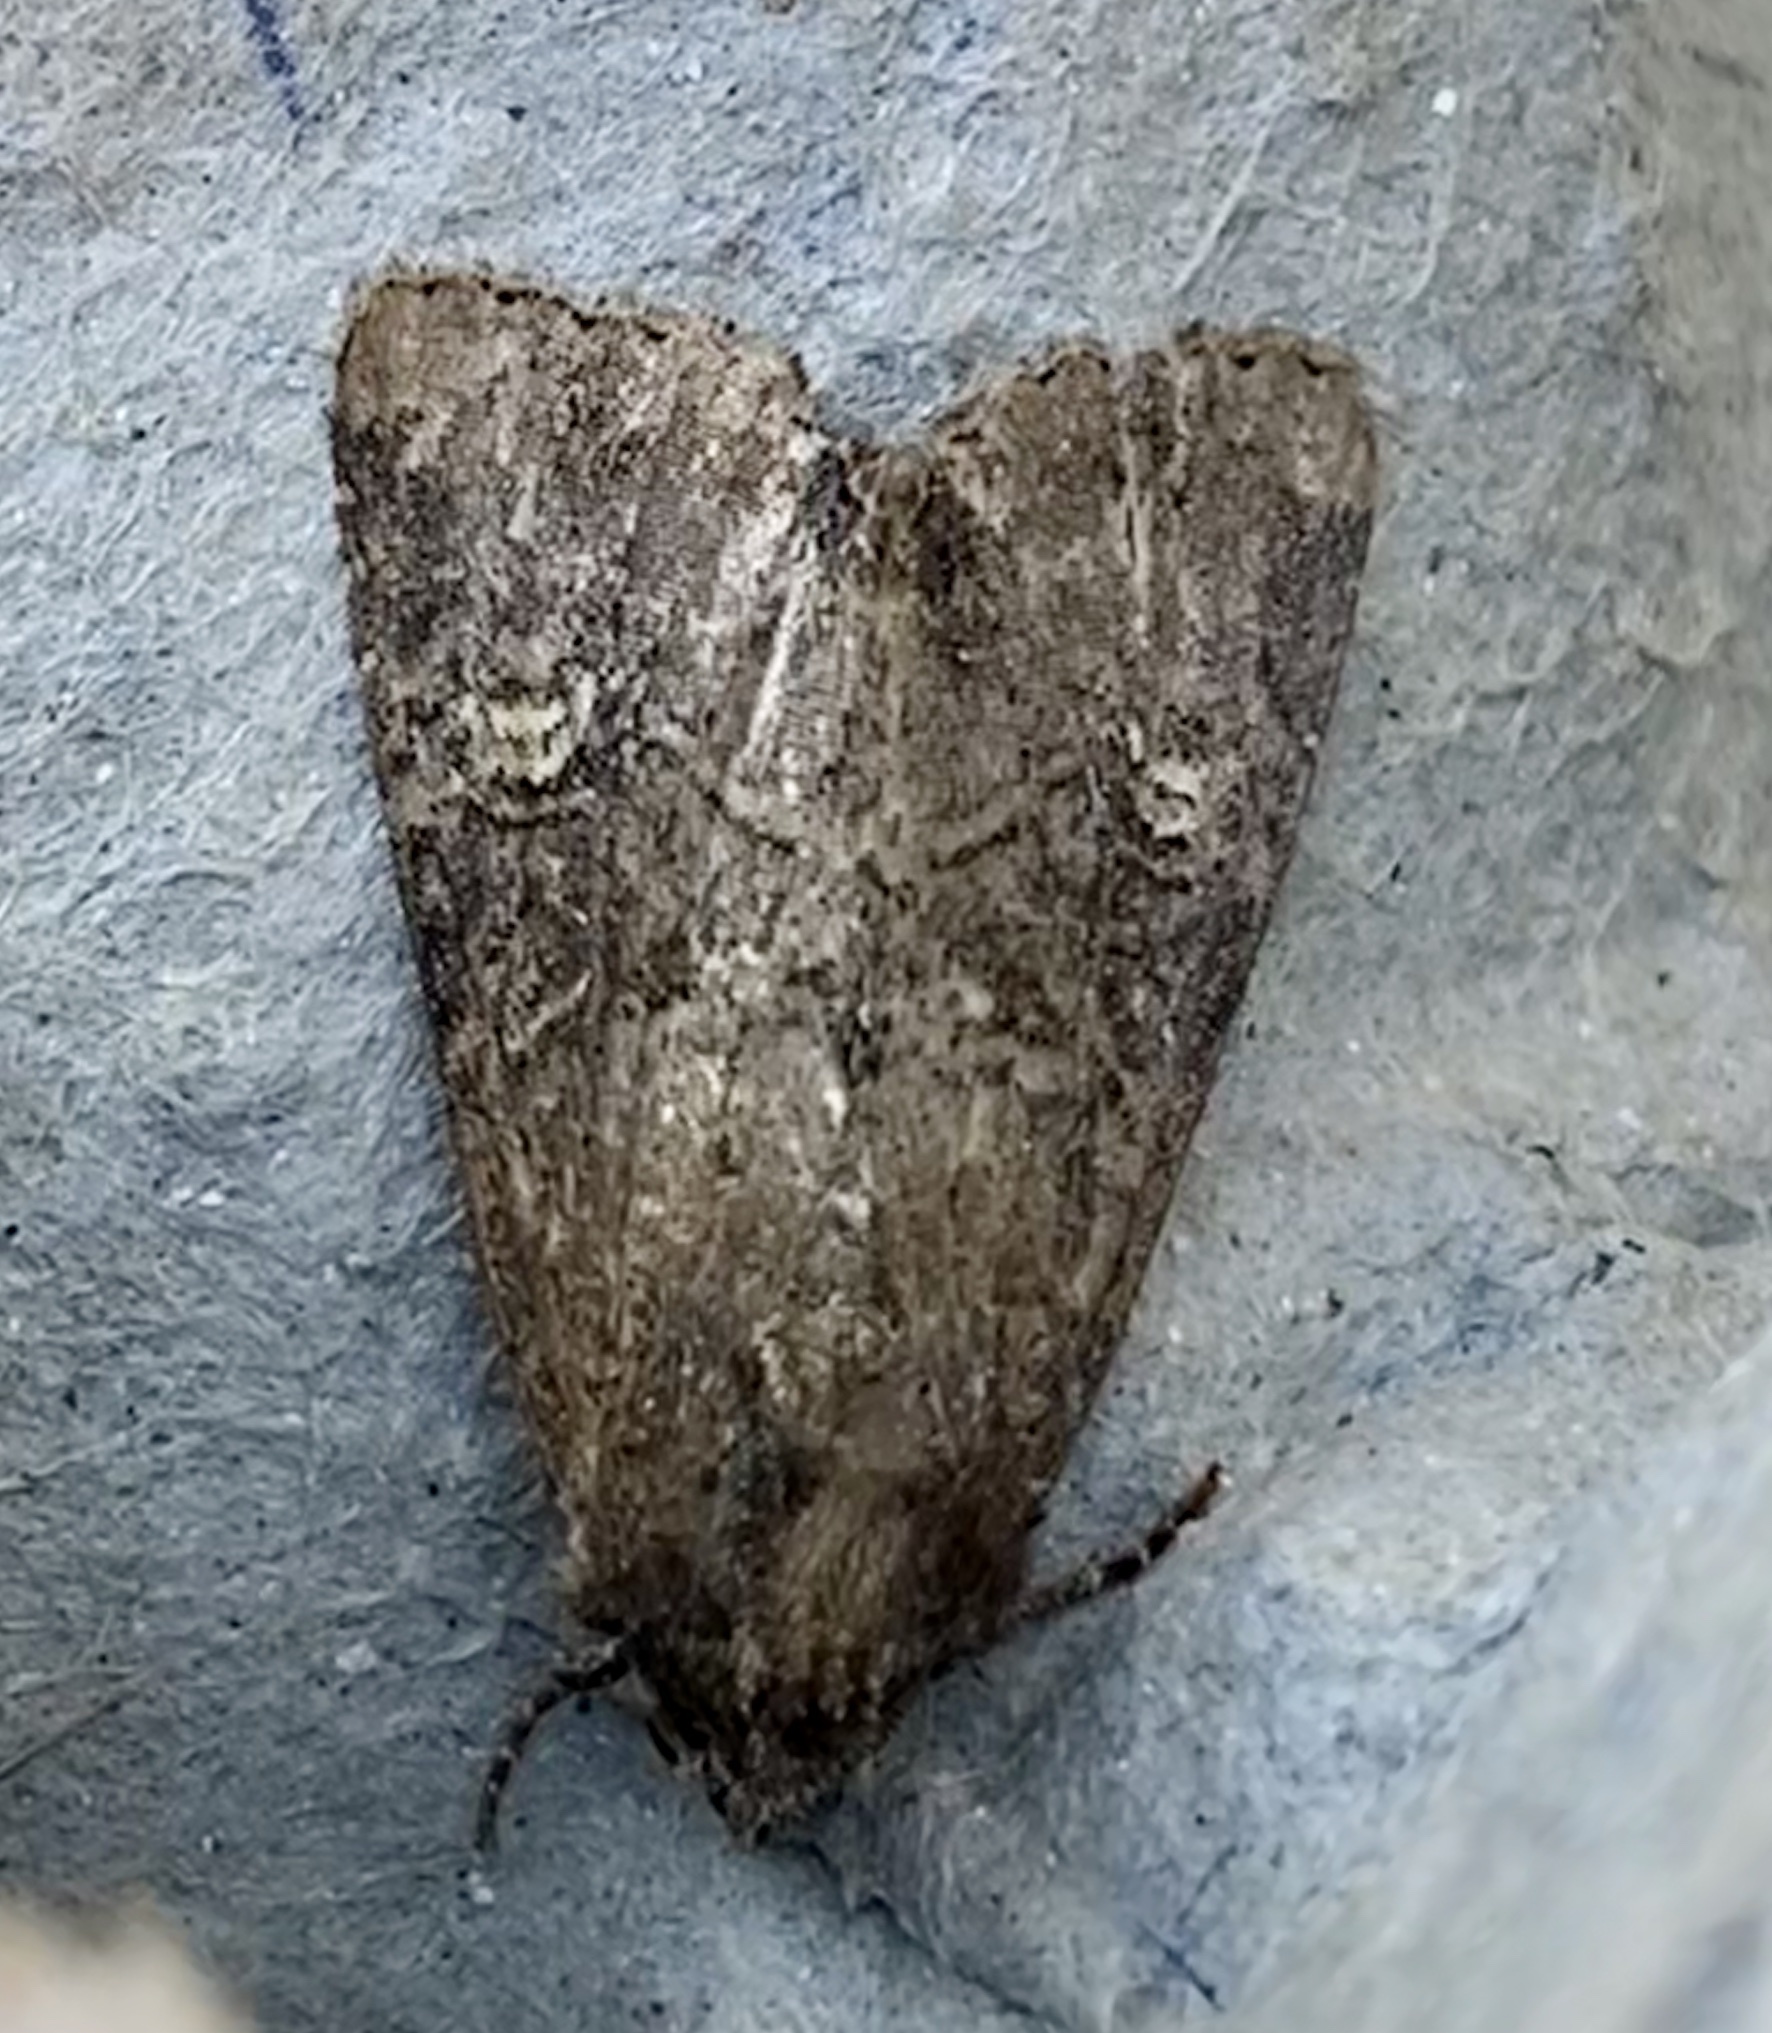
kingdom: Animalia
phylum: Arthropoda
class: Insecta
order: Lepidoptera
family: Noctuidae
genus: Mesapamea
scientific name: Mesapamea
